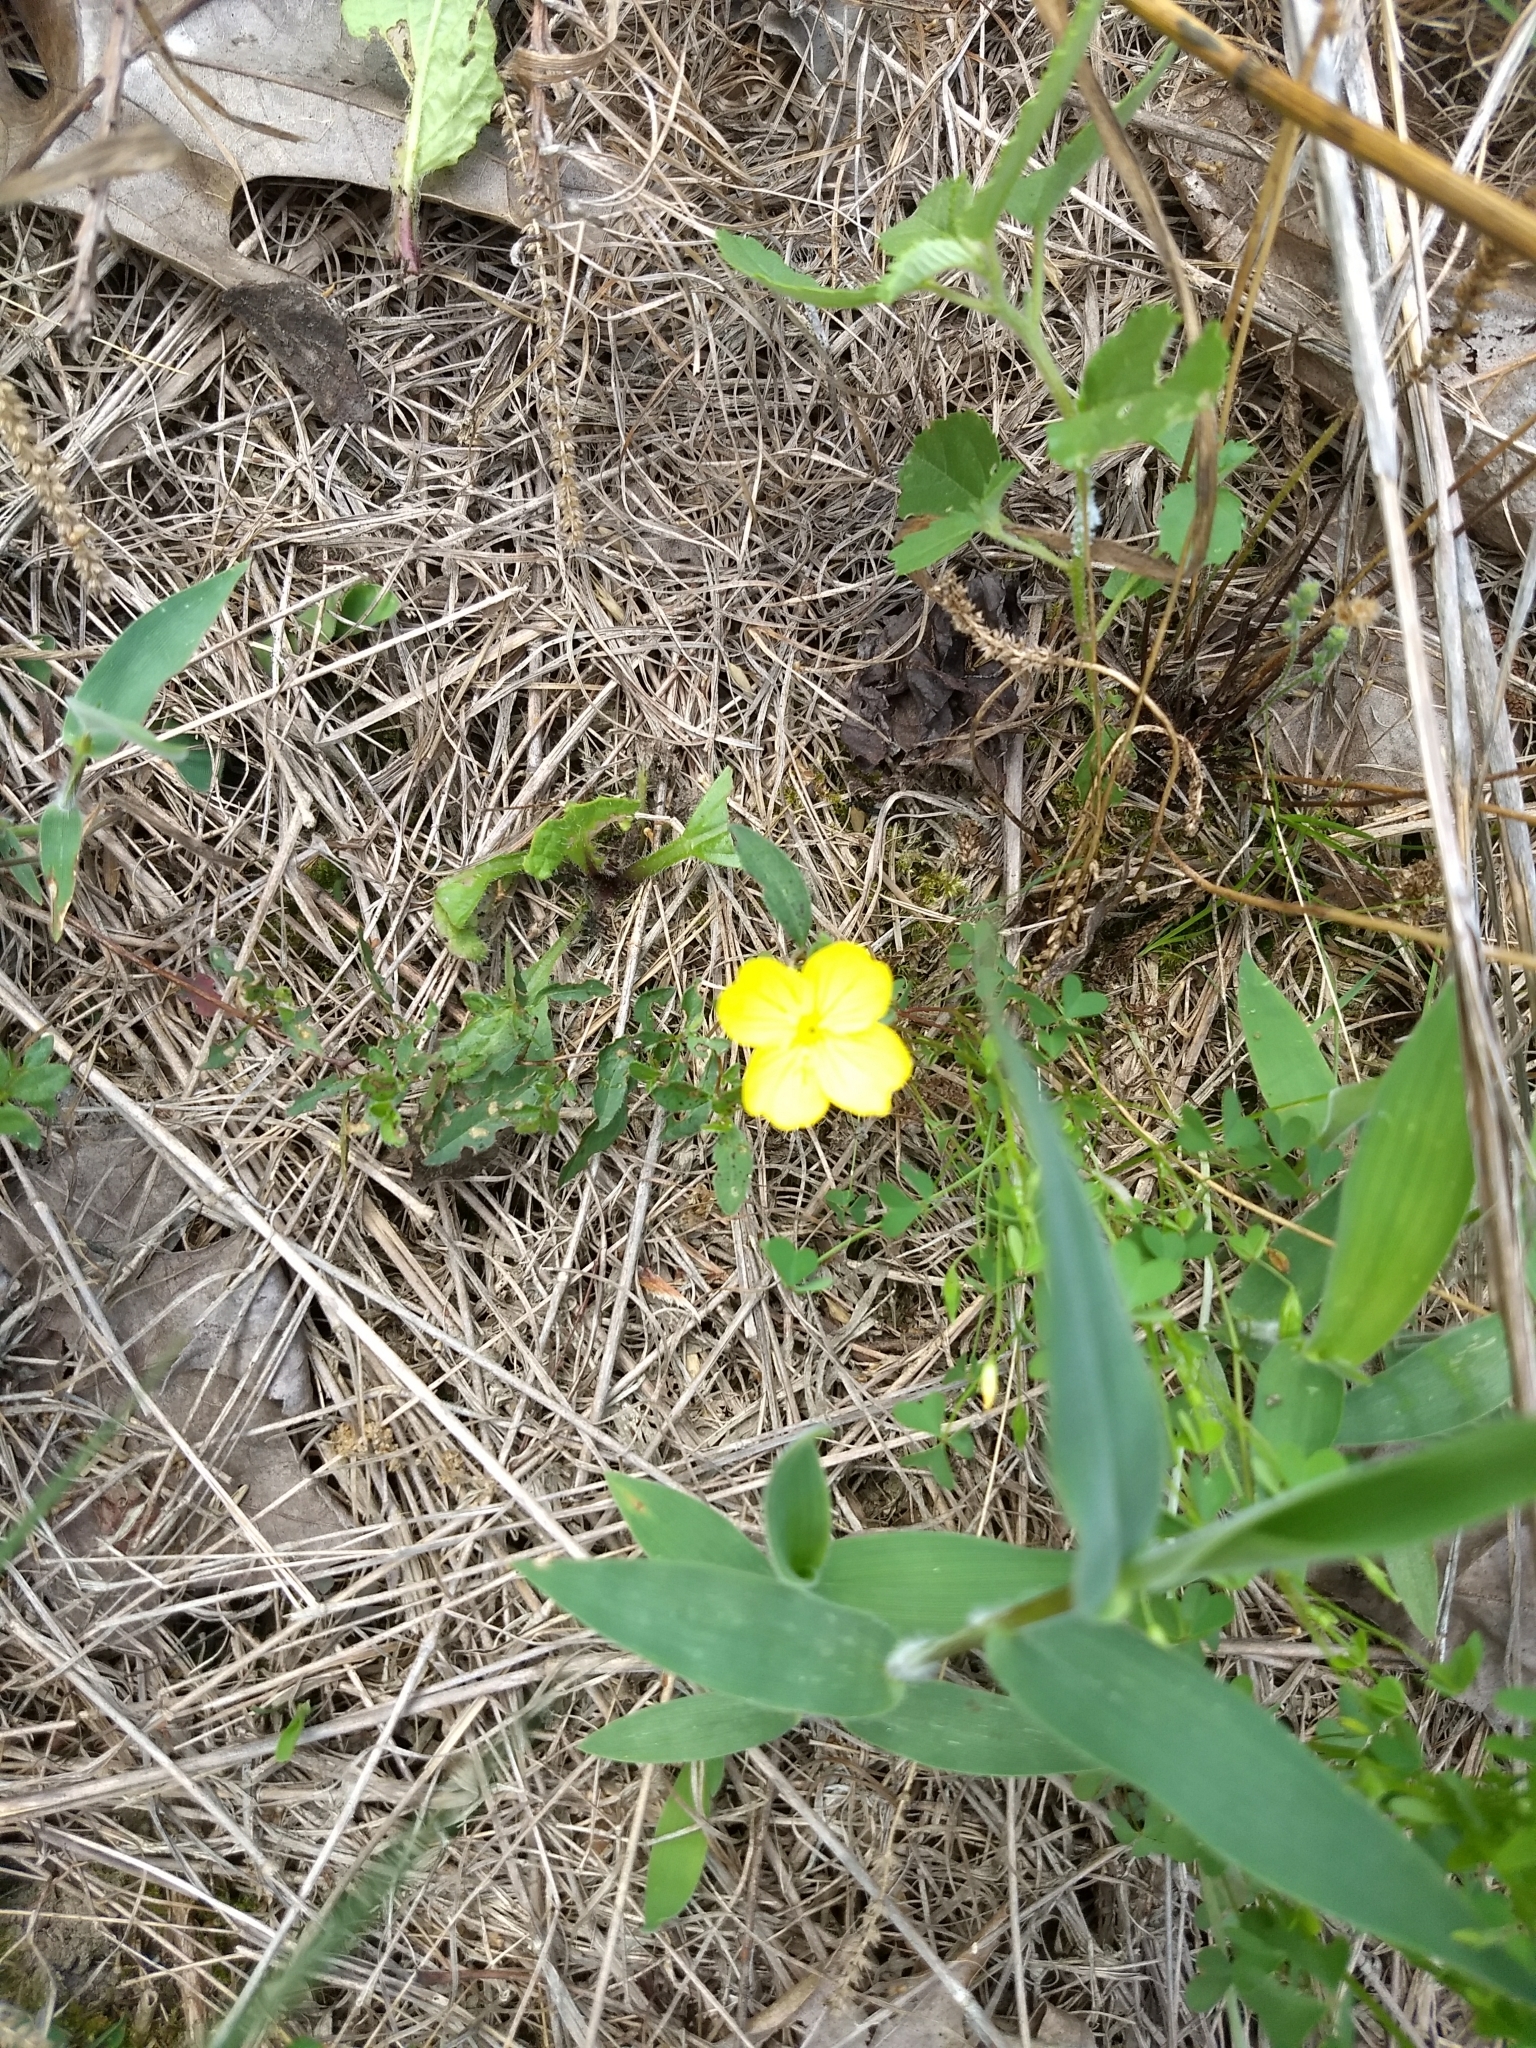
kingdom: Plantae
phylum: Tracheophyta
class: Magnoliopsida
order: Myrtales
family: Onagraceae
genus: Oenothera
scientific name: Oenothera fruticosa
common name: Southern sundrops
